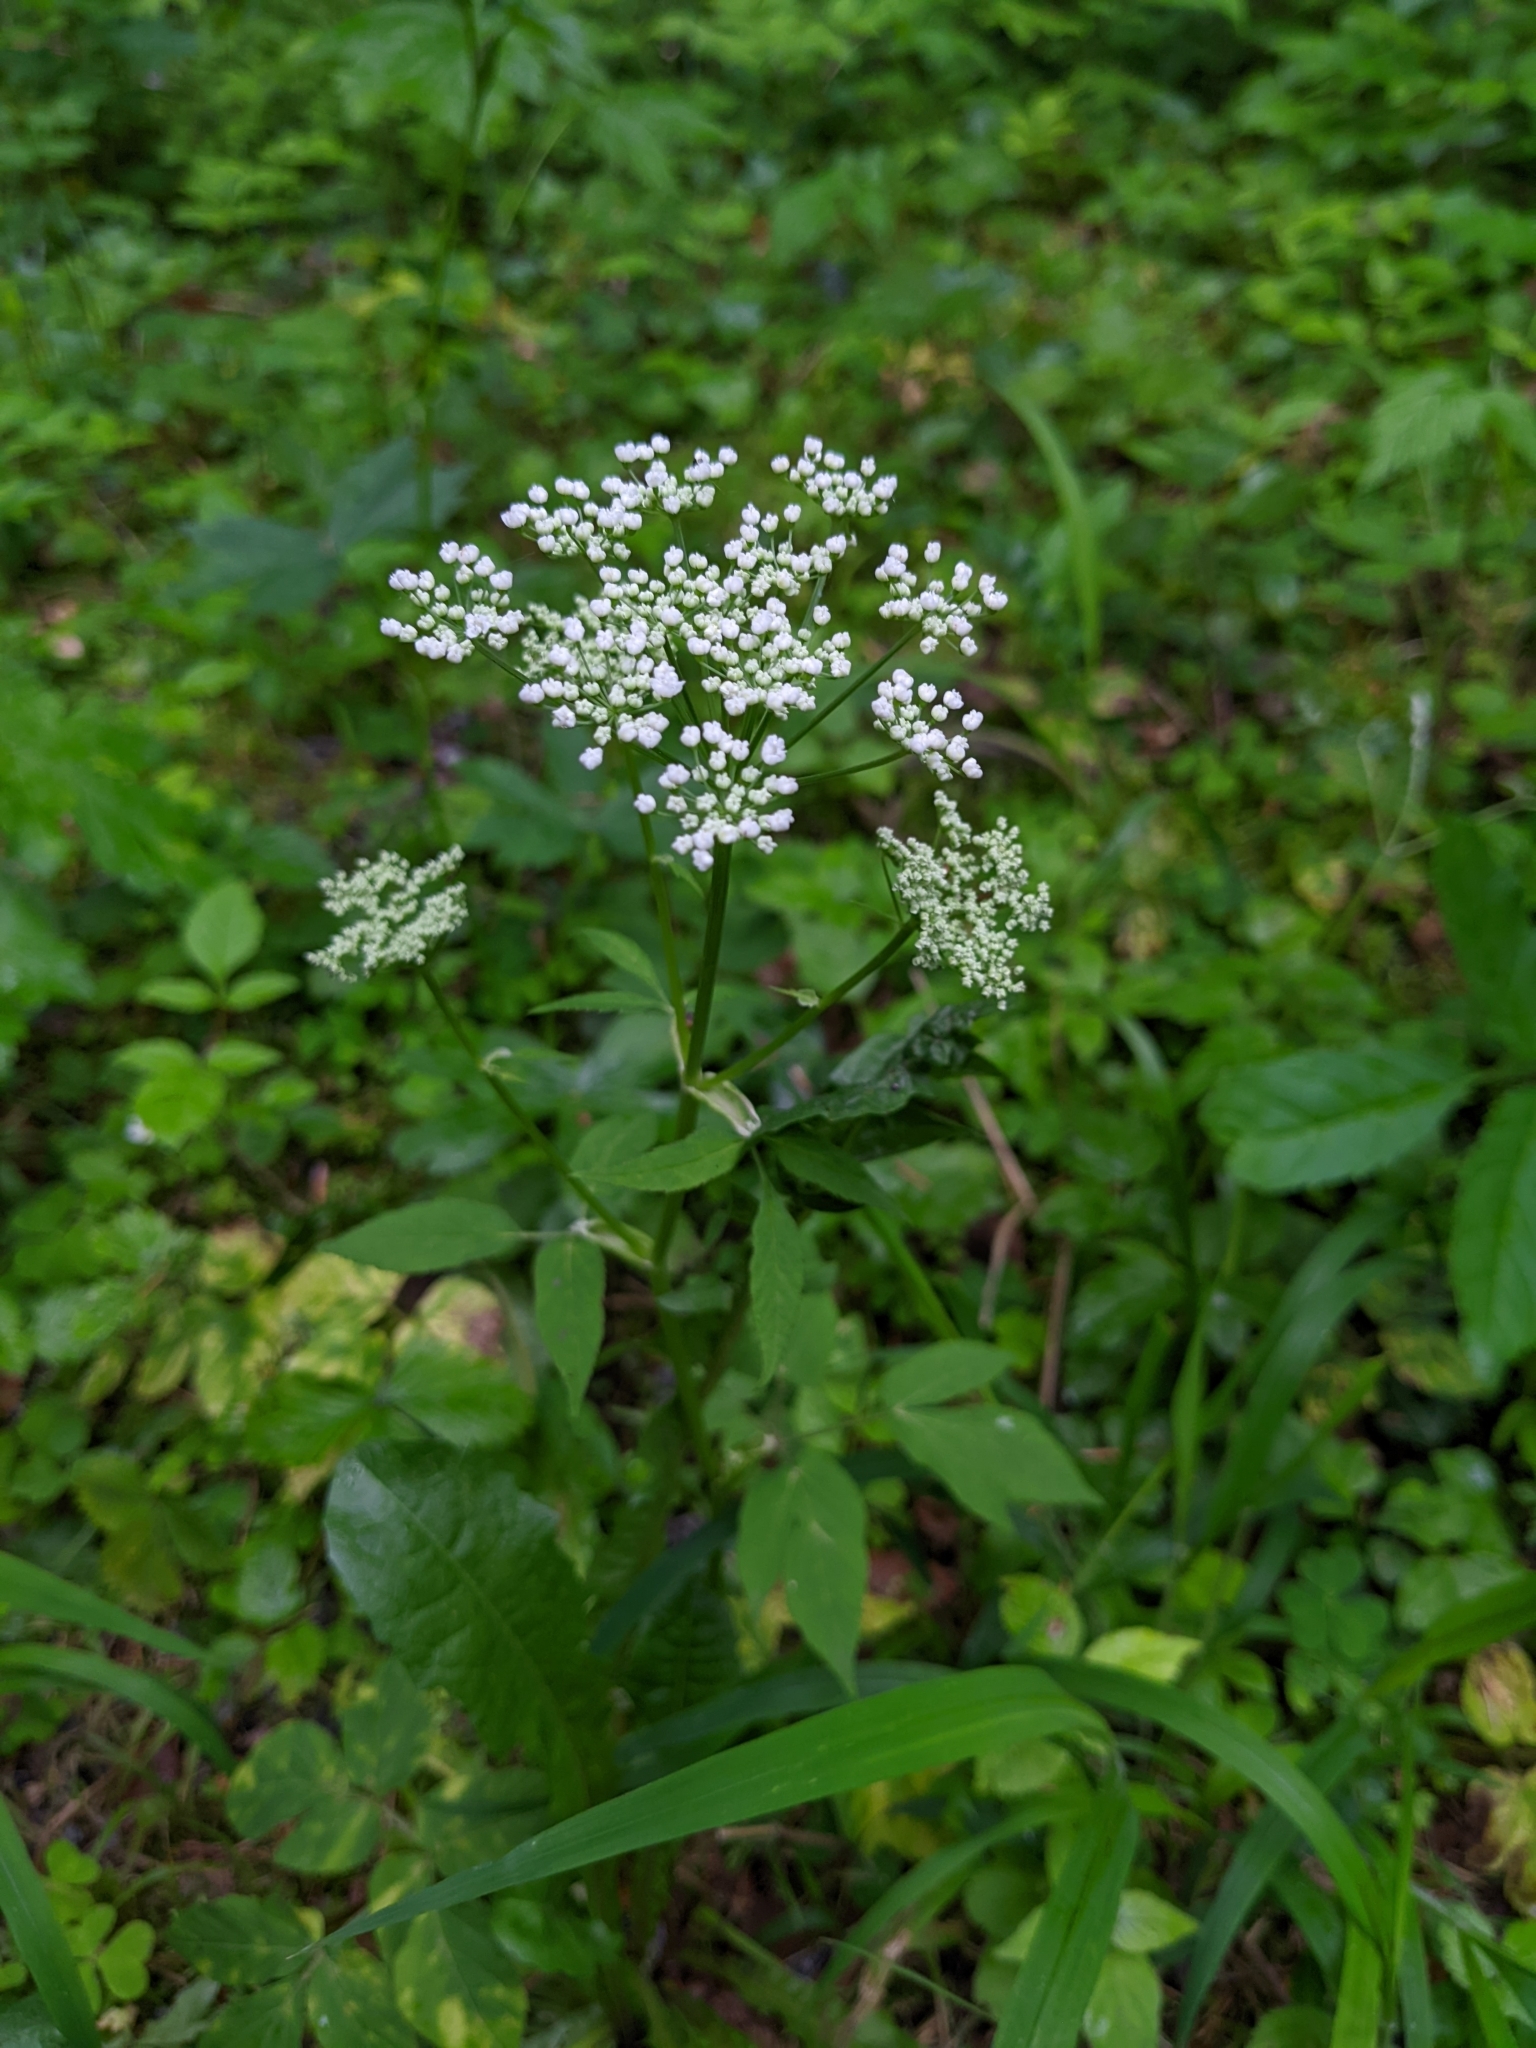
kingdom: Plantae
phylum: Tracheophyta
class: Magnoliopsida
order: Apiales
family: Apiaceae
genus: Aegopodium
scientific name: Aegopodium podagraria
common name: Ground-elder
